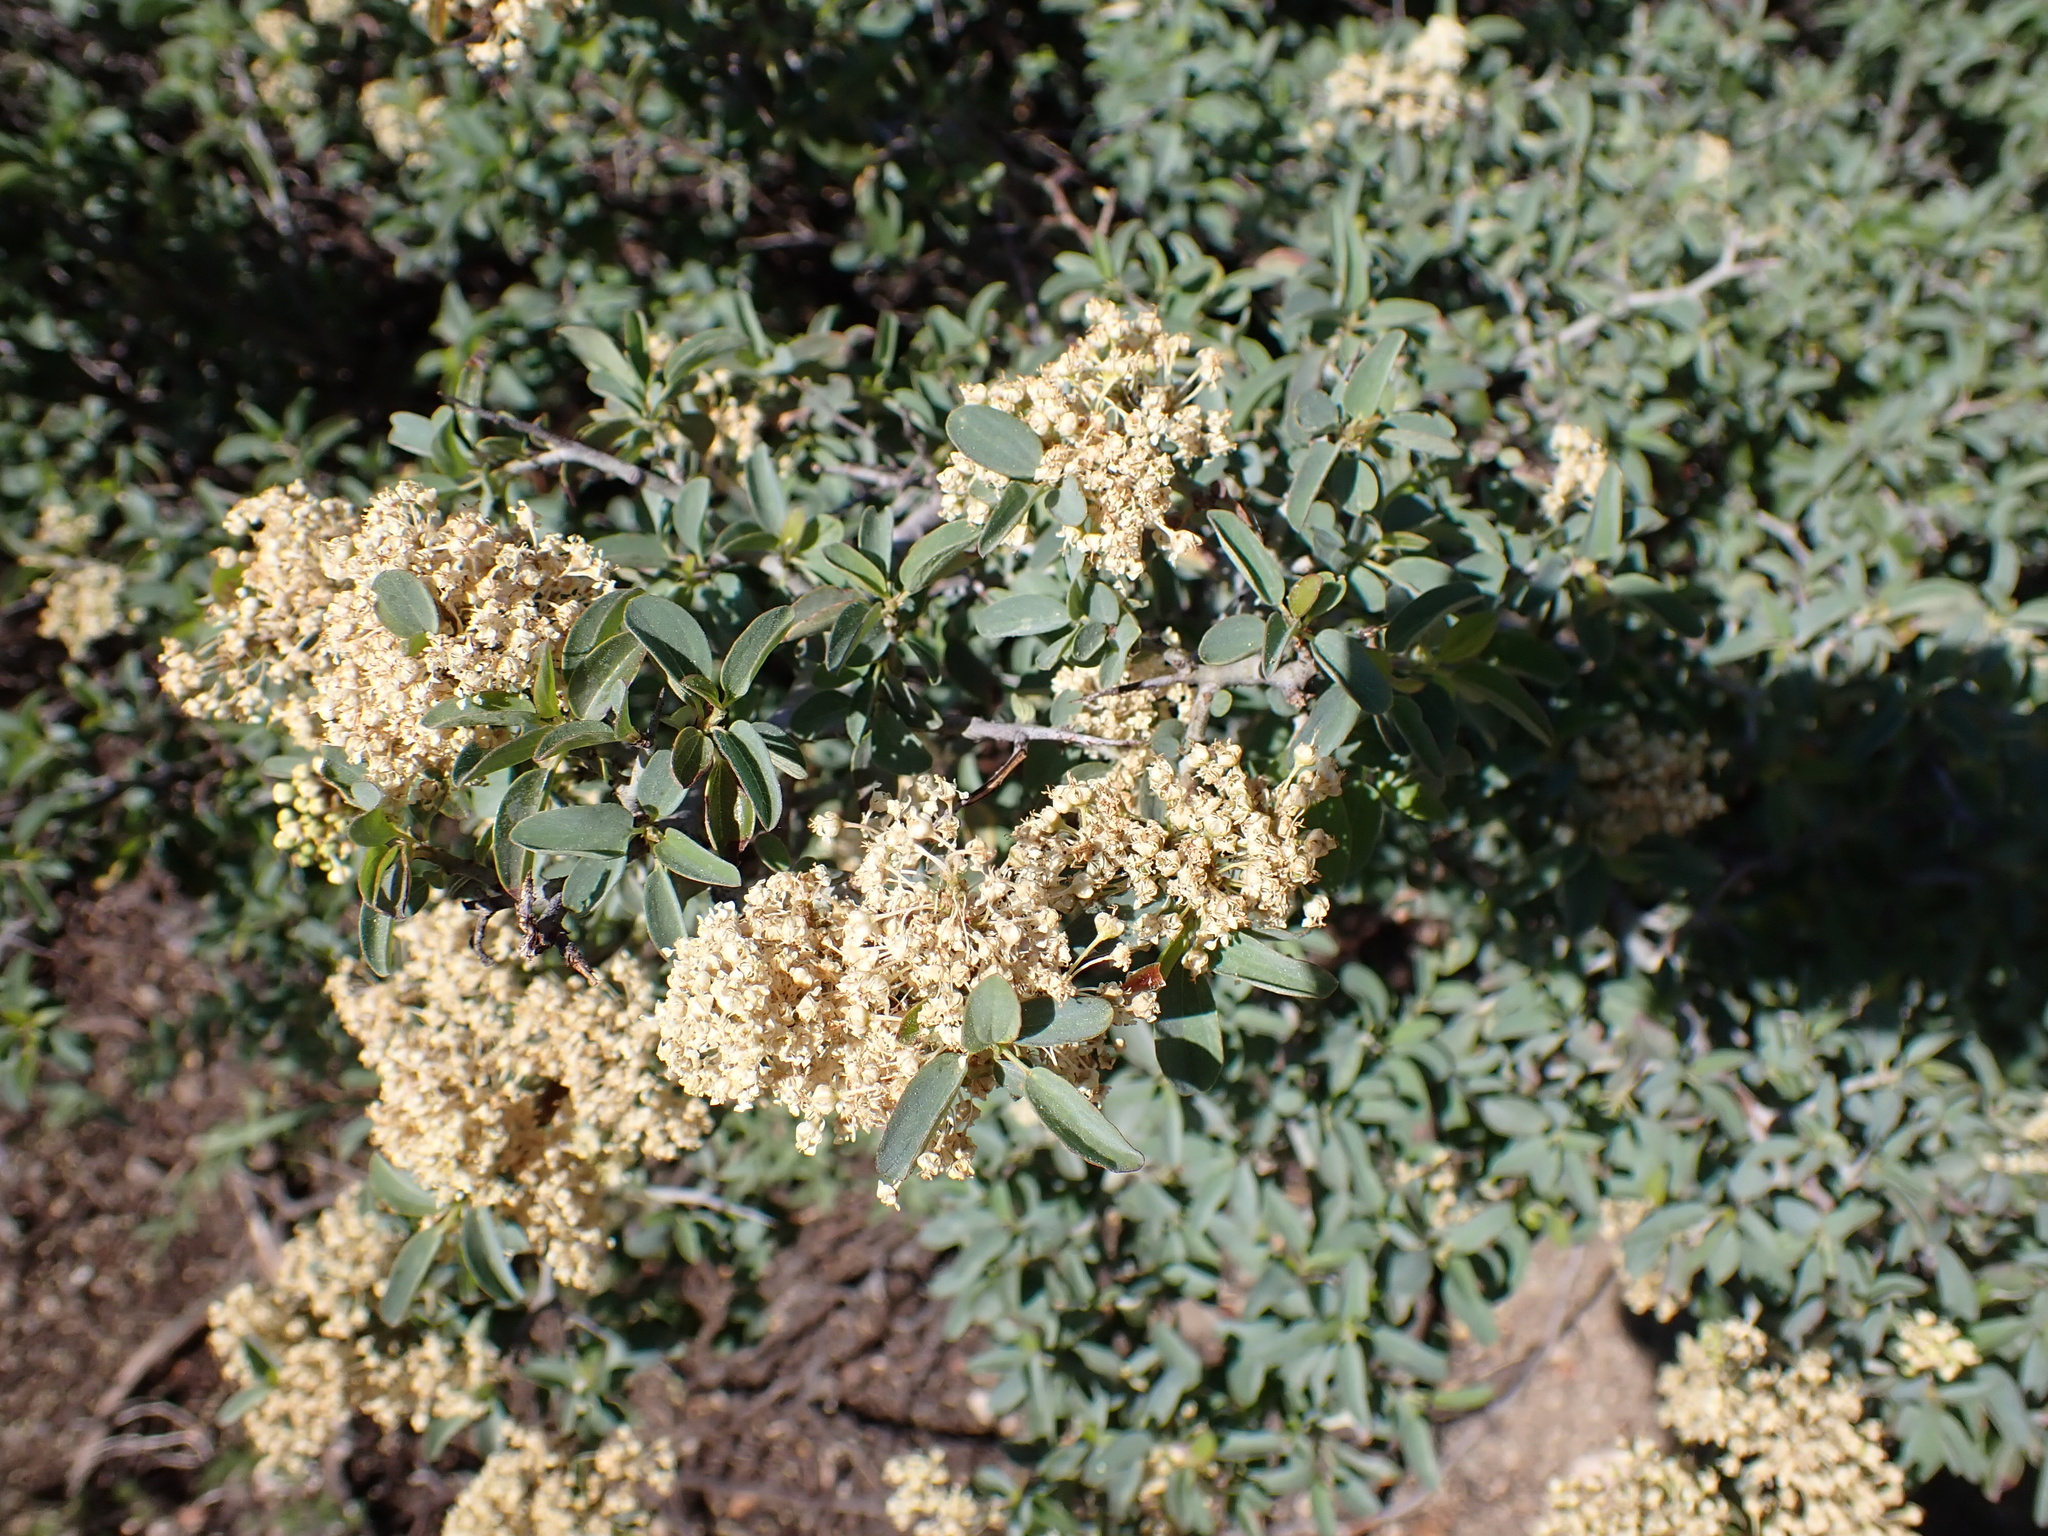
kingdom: Plantae
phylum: Tracheophyta
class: Magnoliopsida
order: Rosales
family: Rhamnaceae
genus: Ceanothus
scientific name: Ceanothus cordulatus
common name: Mountain whitethorn
